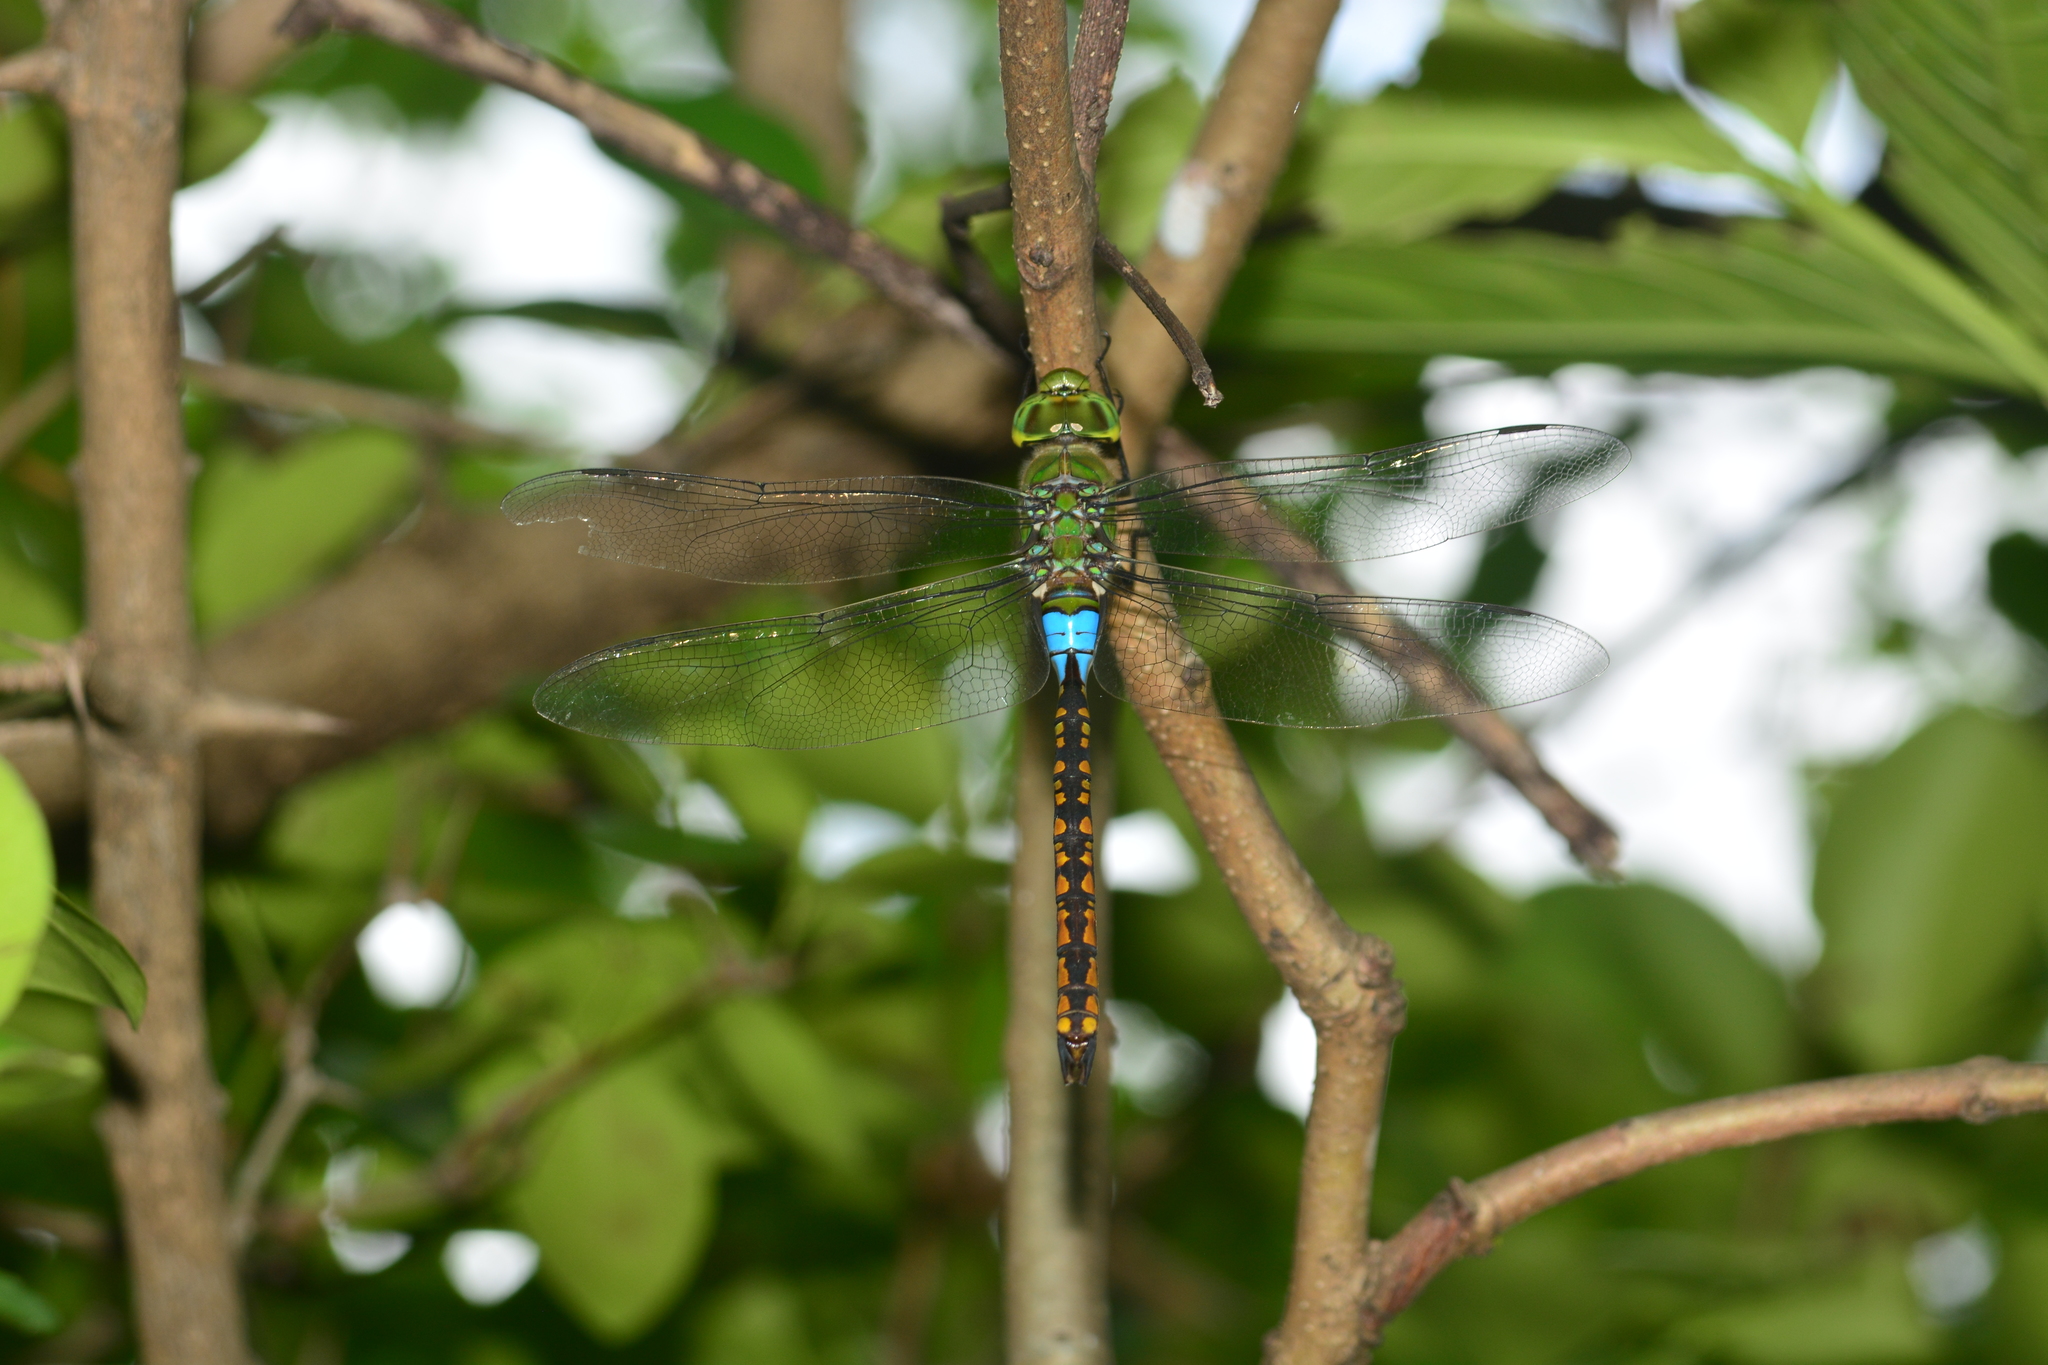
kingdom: Animalia
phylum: Arthropoda
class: Insecta
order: Odonata
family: Aeshnidae
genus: Anax
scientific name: Anax indicus
